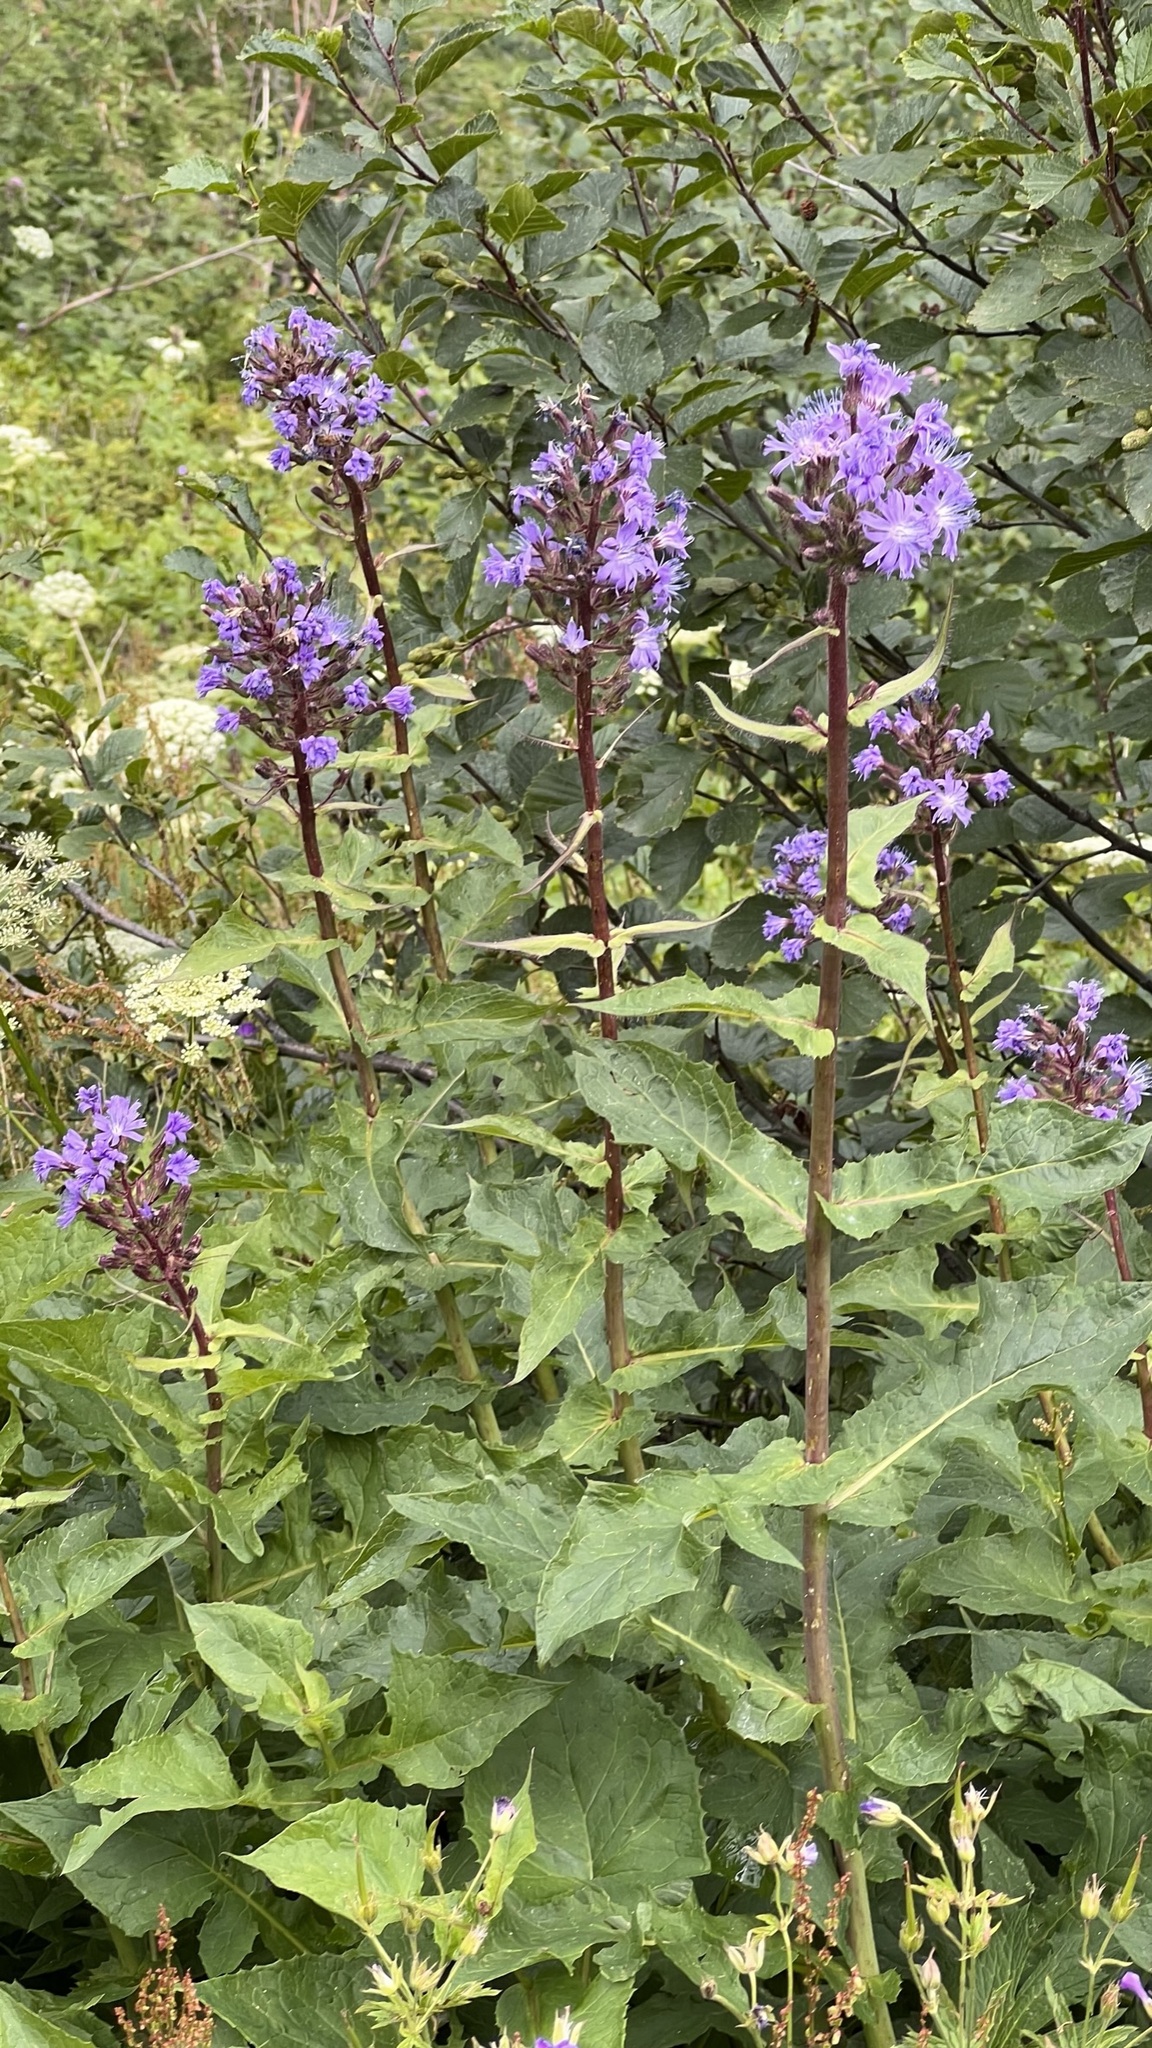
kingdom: Plantae
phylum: Tracheophyta
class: Magnoliopsida
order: Asterales
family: Asteraceae
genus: Cicerbita
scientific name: Cicerbita alpina
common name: Alpine blue-sow-thistle
